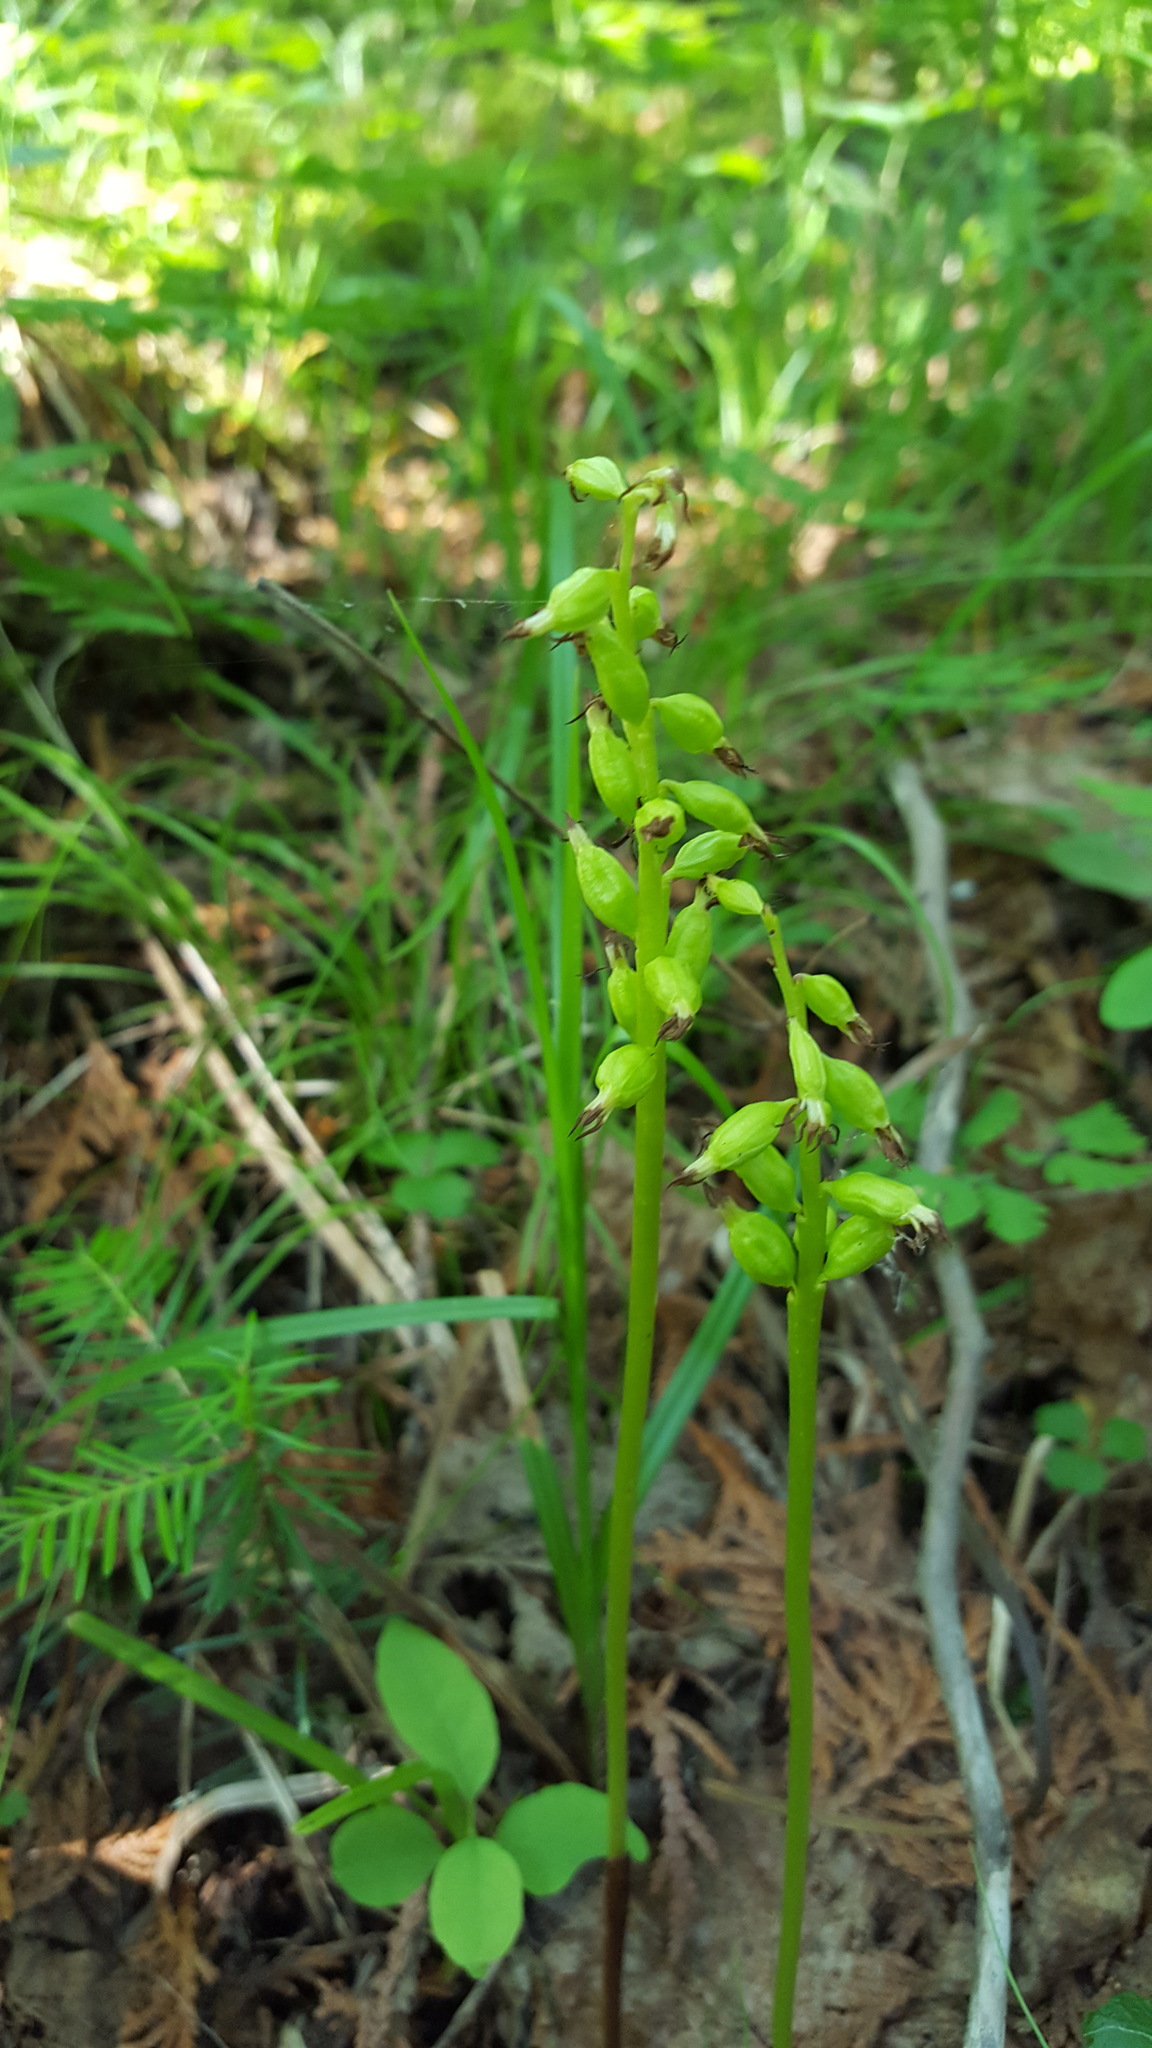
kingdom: Plantae
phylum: Tracheophyta
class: Liliopsida
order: Asparagales
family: Orchidaceae
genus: Corallorhiza
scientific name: Corallorhiza trifida
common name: Yellow coralroot
